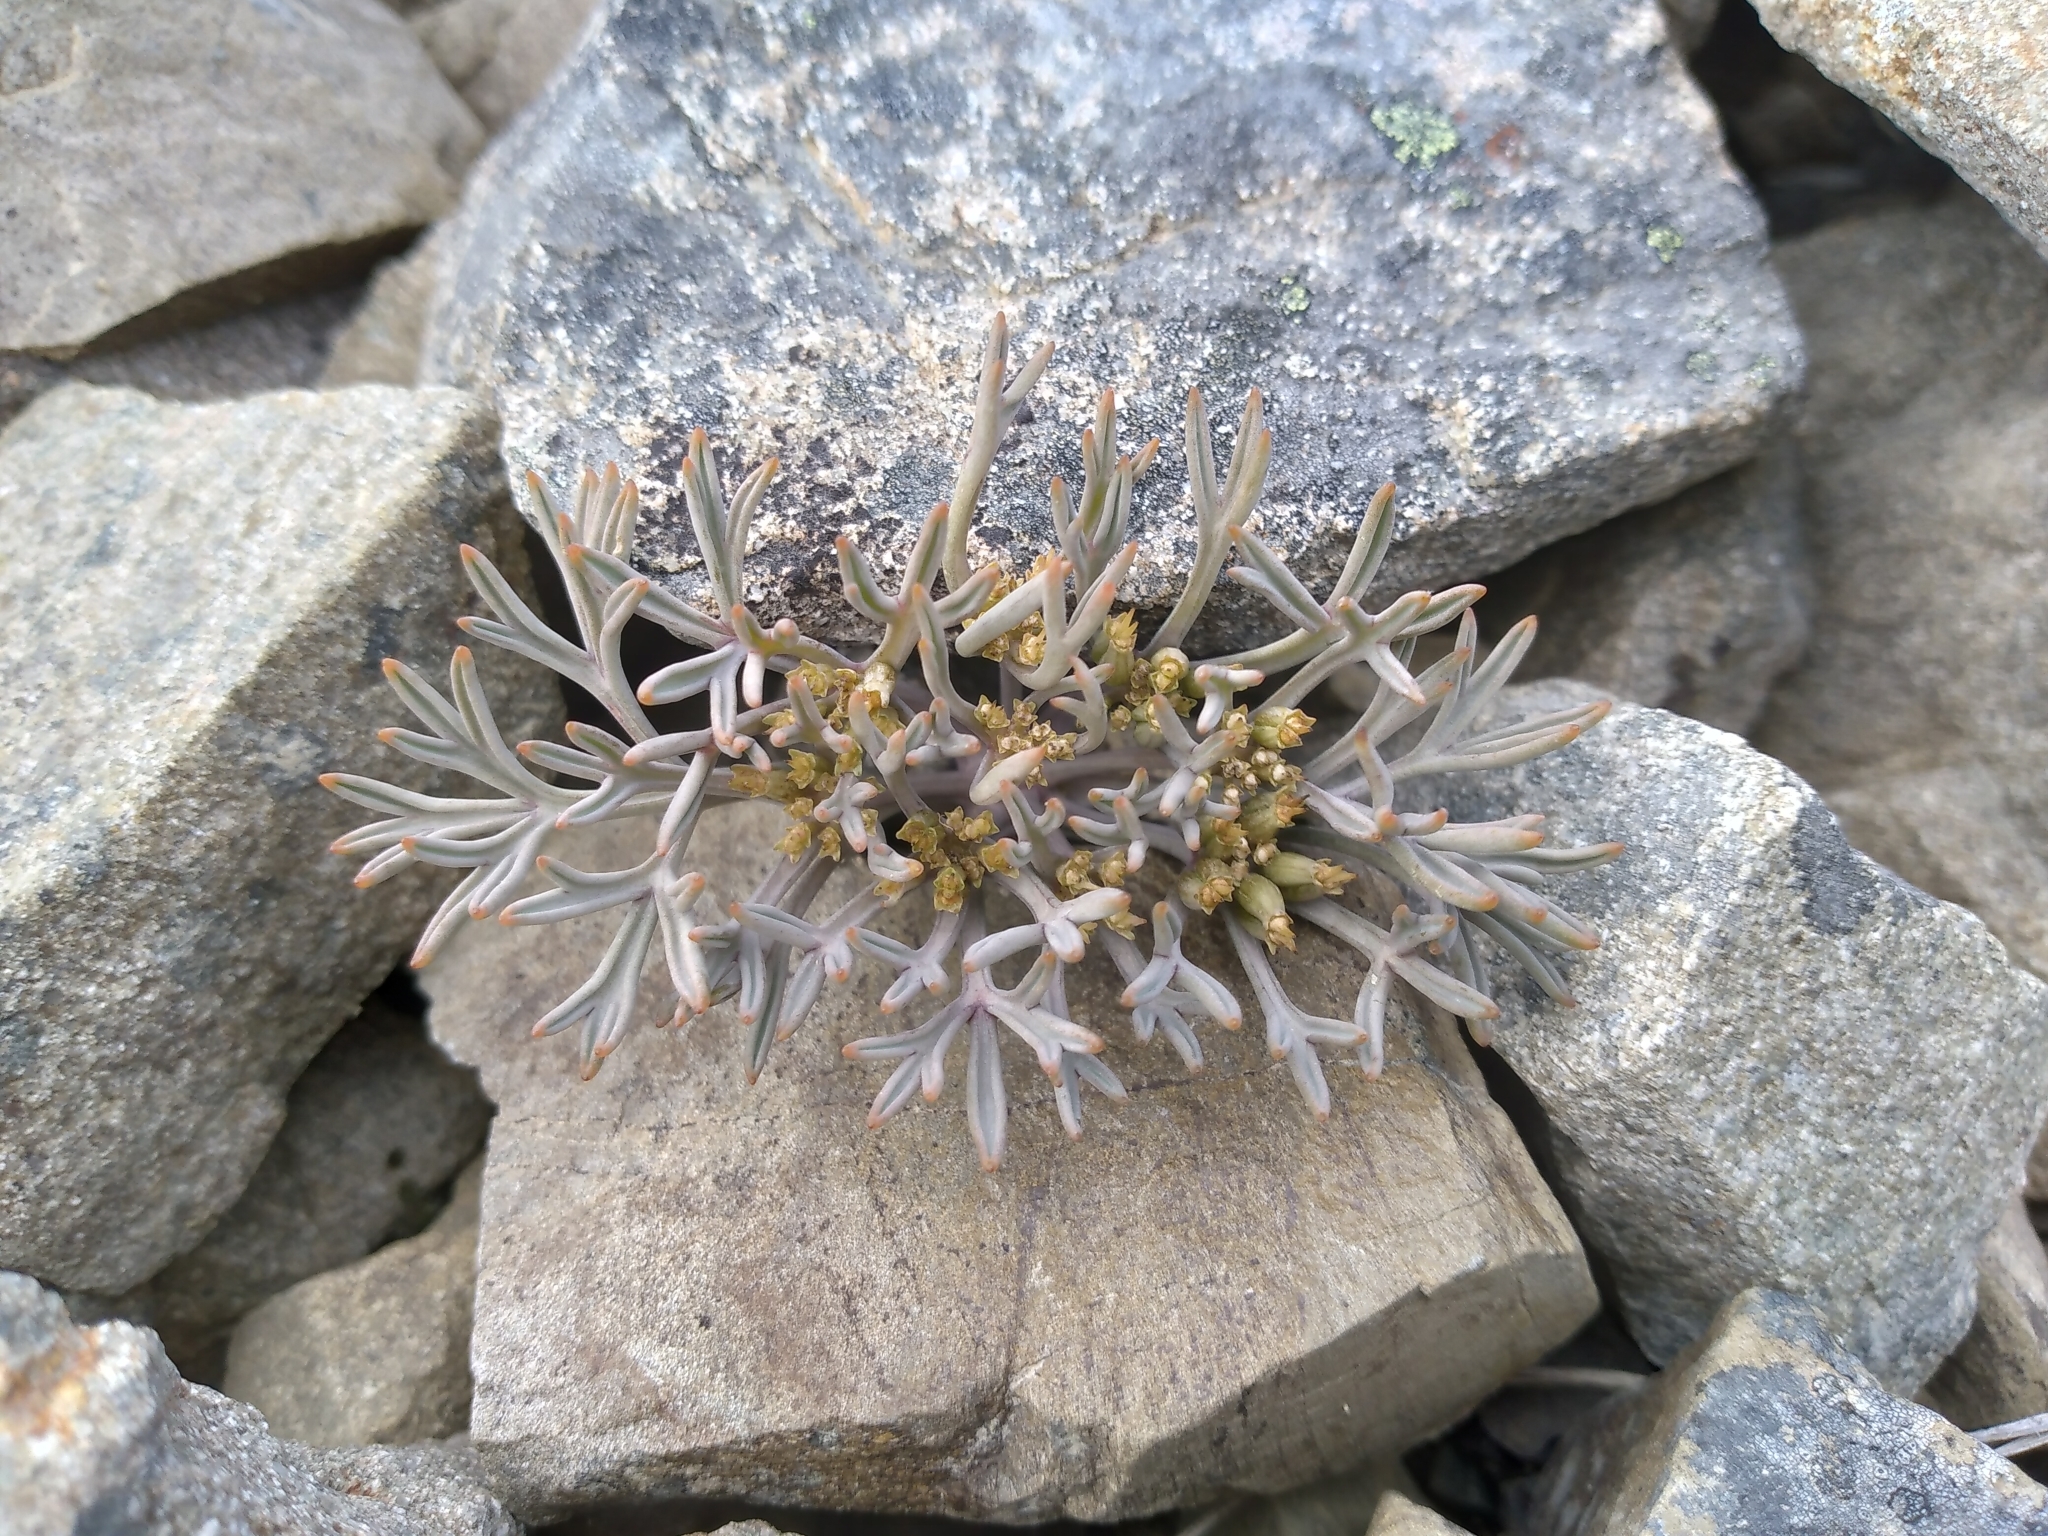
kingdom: Plantae
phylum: Tracheophyta
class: Magnoliopsida
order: Apiales
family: Apiaceae
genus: Lignocarpa
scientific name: Lignocarpa carnosula
